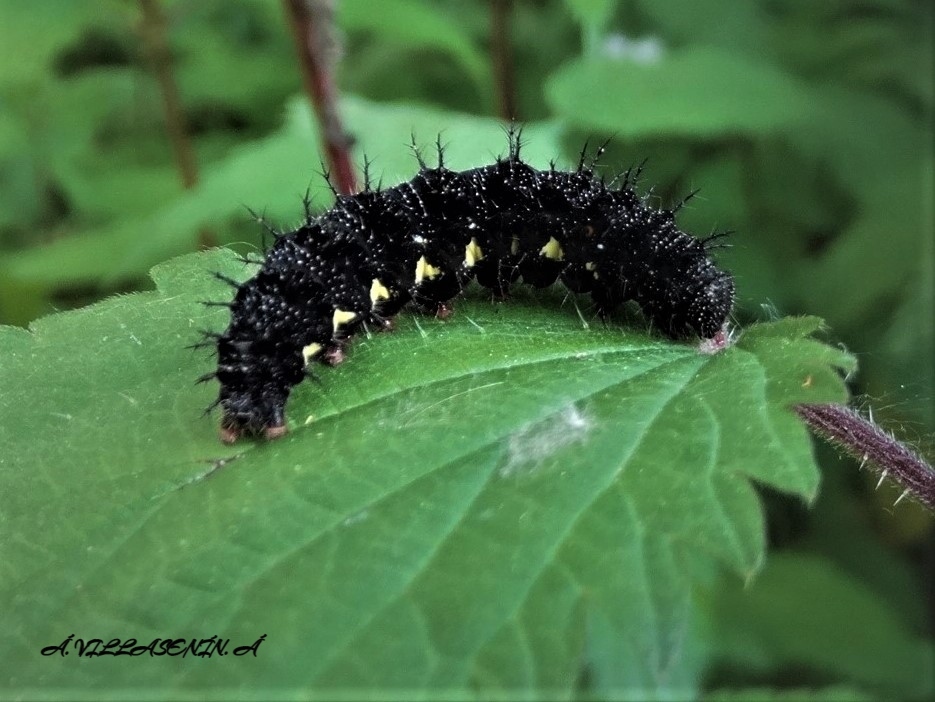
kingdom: Animalia
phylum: Arthropoda
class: Insecta
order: Lepidoptera
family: Nymphalidae
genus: Vanessa
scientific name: Vanessa atalanta
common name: Red admiral
